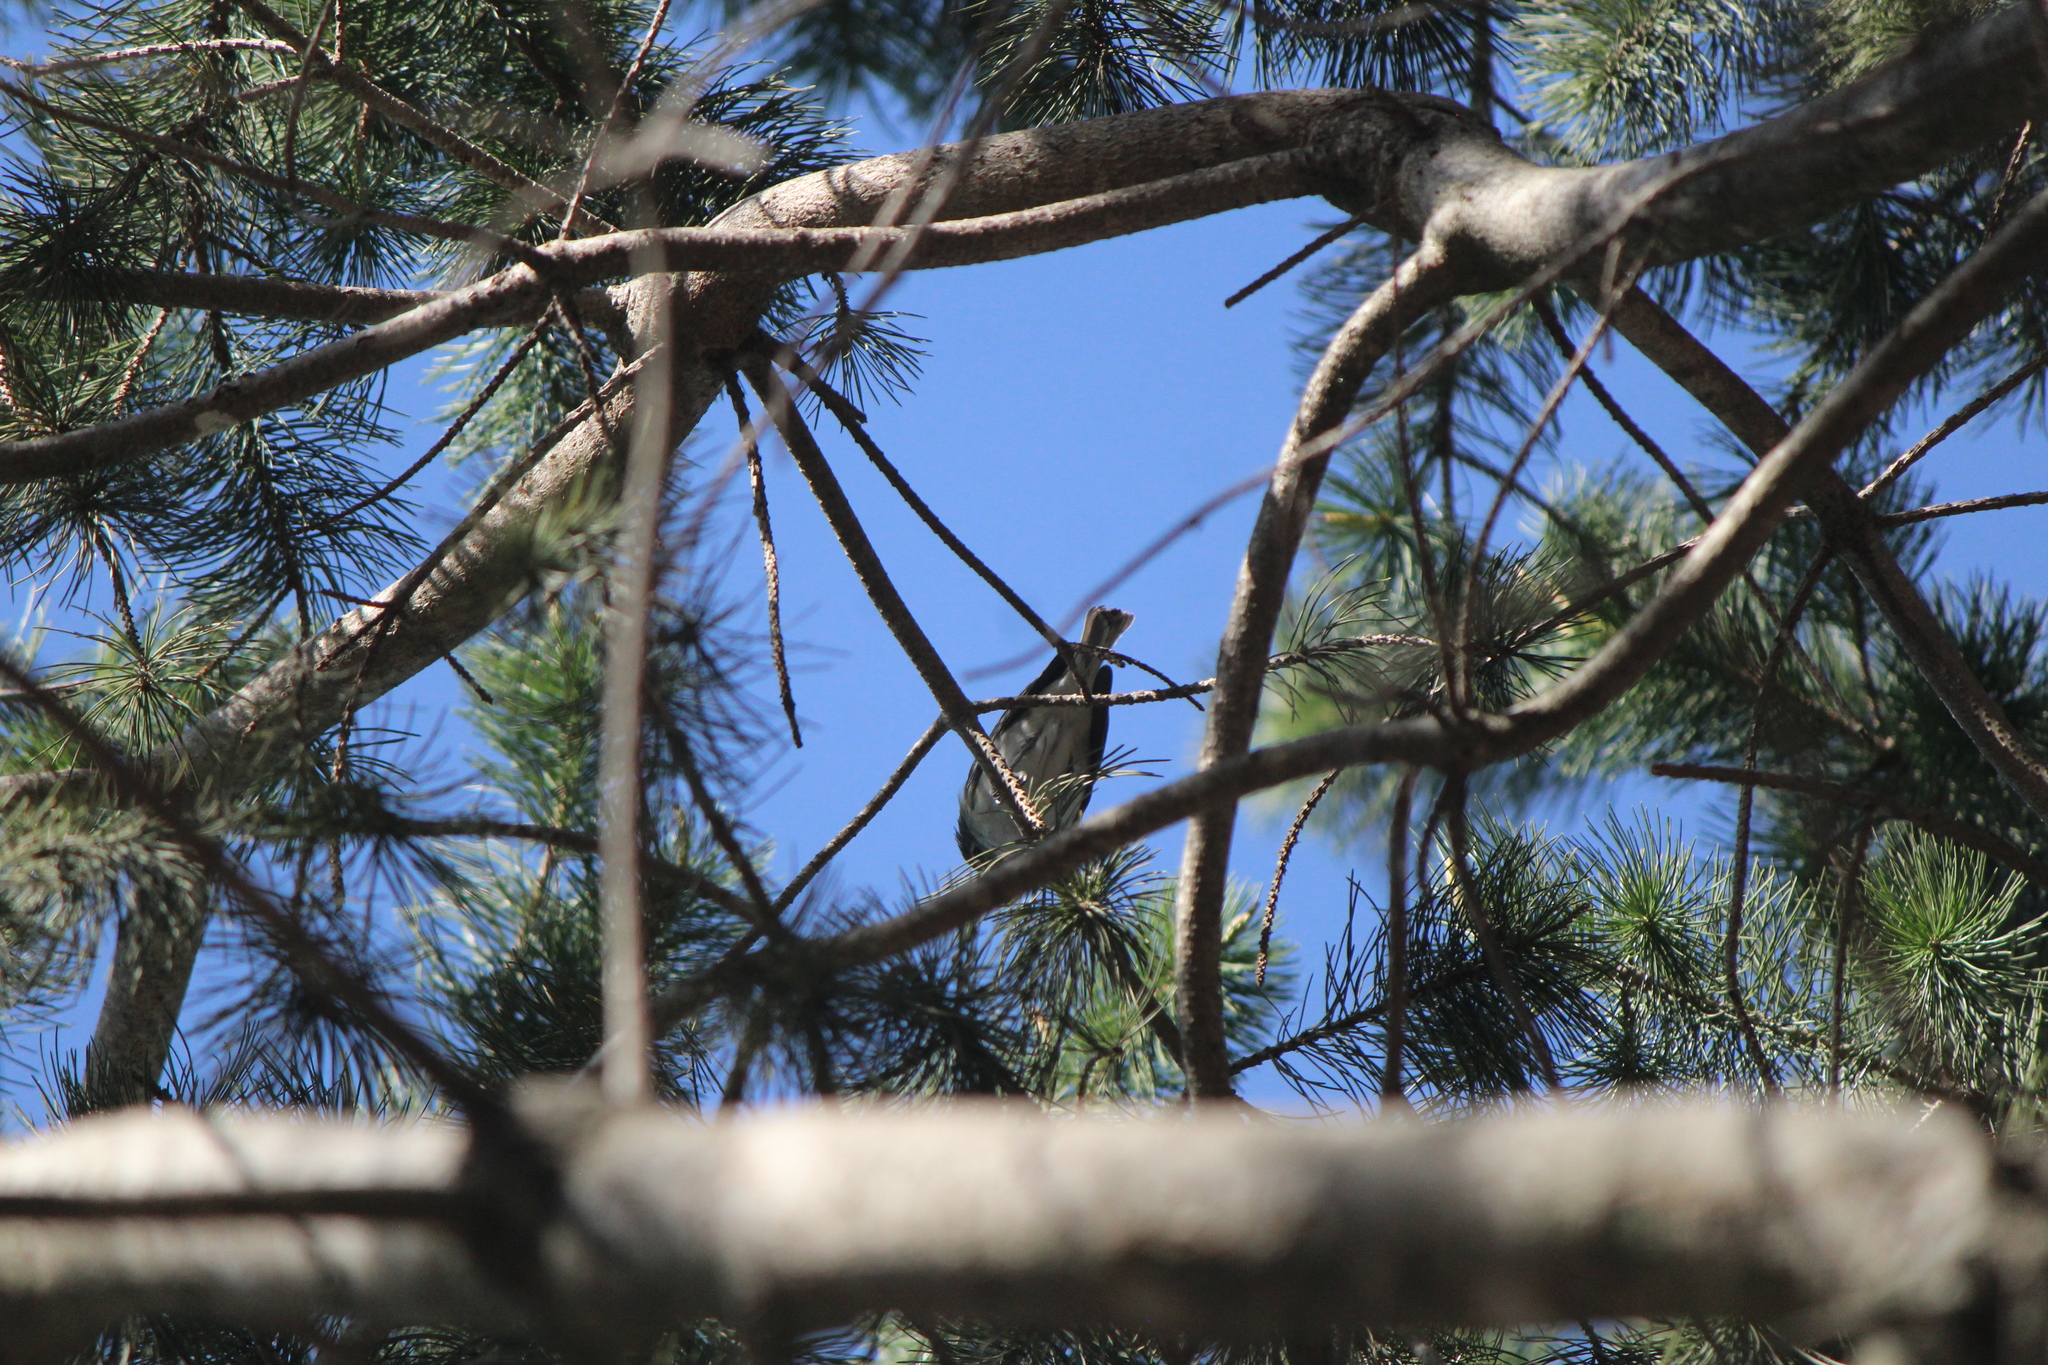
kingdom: Animalia
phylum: Chordata
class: Aves
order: Passeriformes
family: Vireonidae
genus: Vireo
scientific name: Vireo plumbeus
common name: Plumbeous vireo
